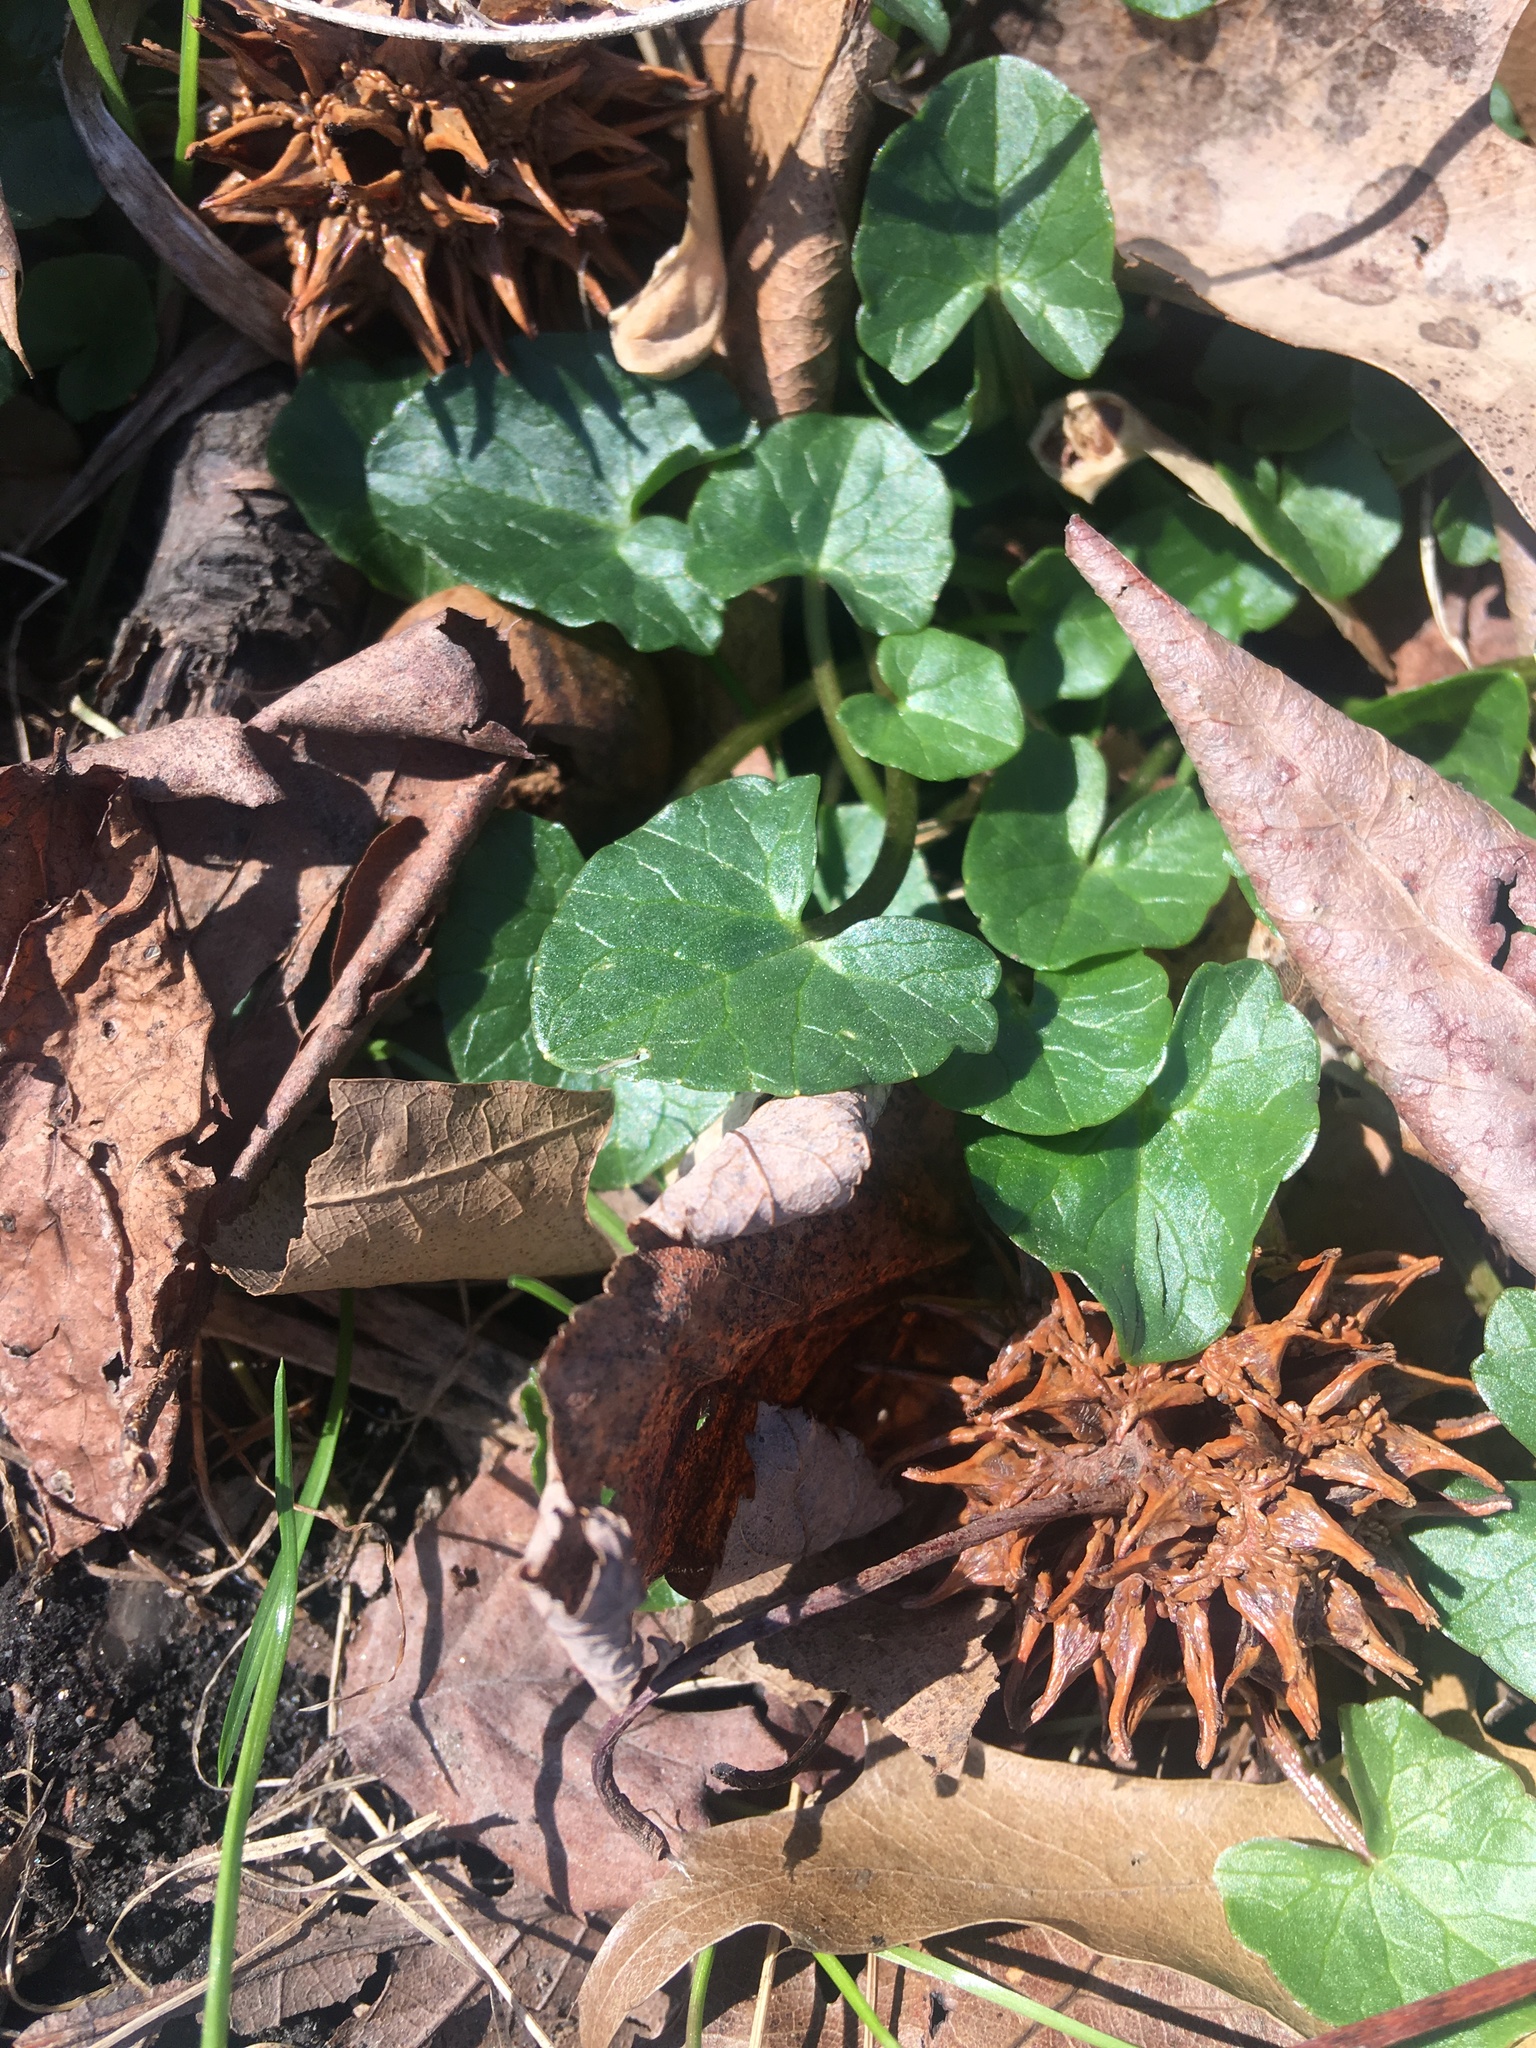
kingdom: Plantae
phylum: Tracheophyta
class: Magnoliopsida
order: Ranunculales
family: Ranunculaceae
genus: Ficaria
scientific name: Ficaria verna
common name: Lesser celandine
